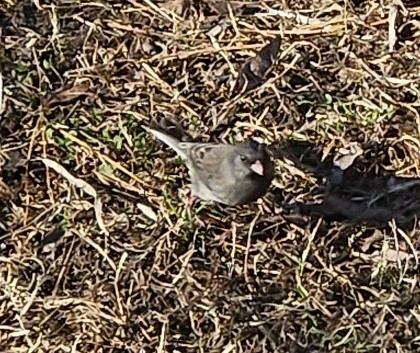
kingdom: Animalia
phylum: Chordata
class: Aves
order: Passeriformes
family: Passerellidae
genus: Junco
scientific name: Junco hyemalis
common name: Dark-eyed junco
